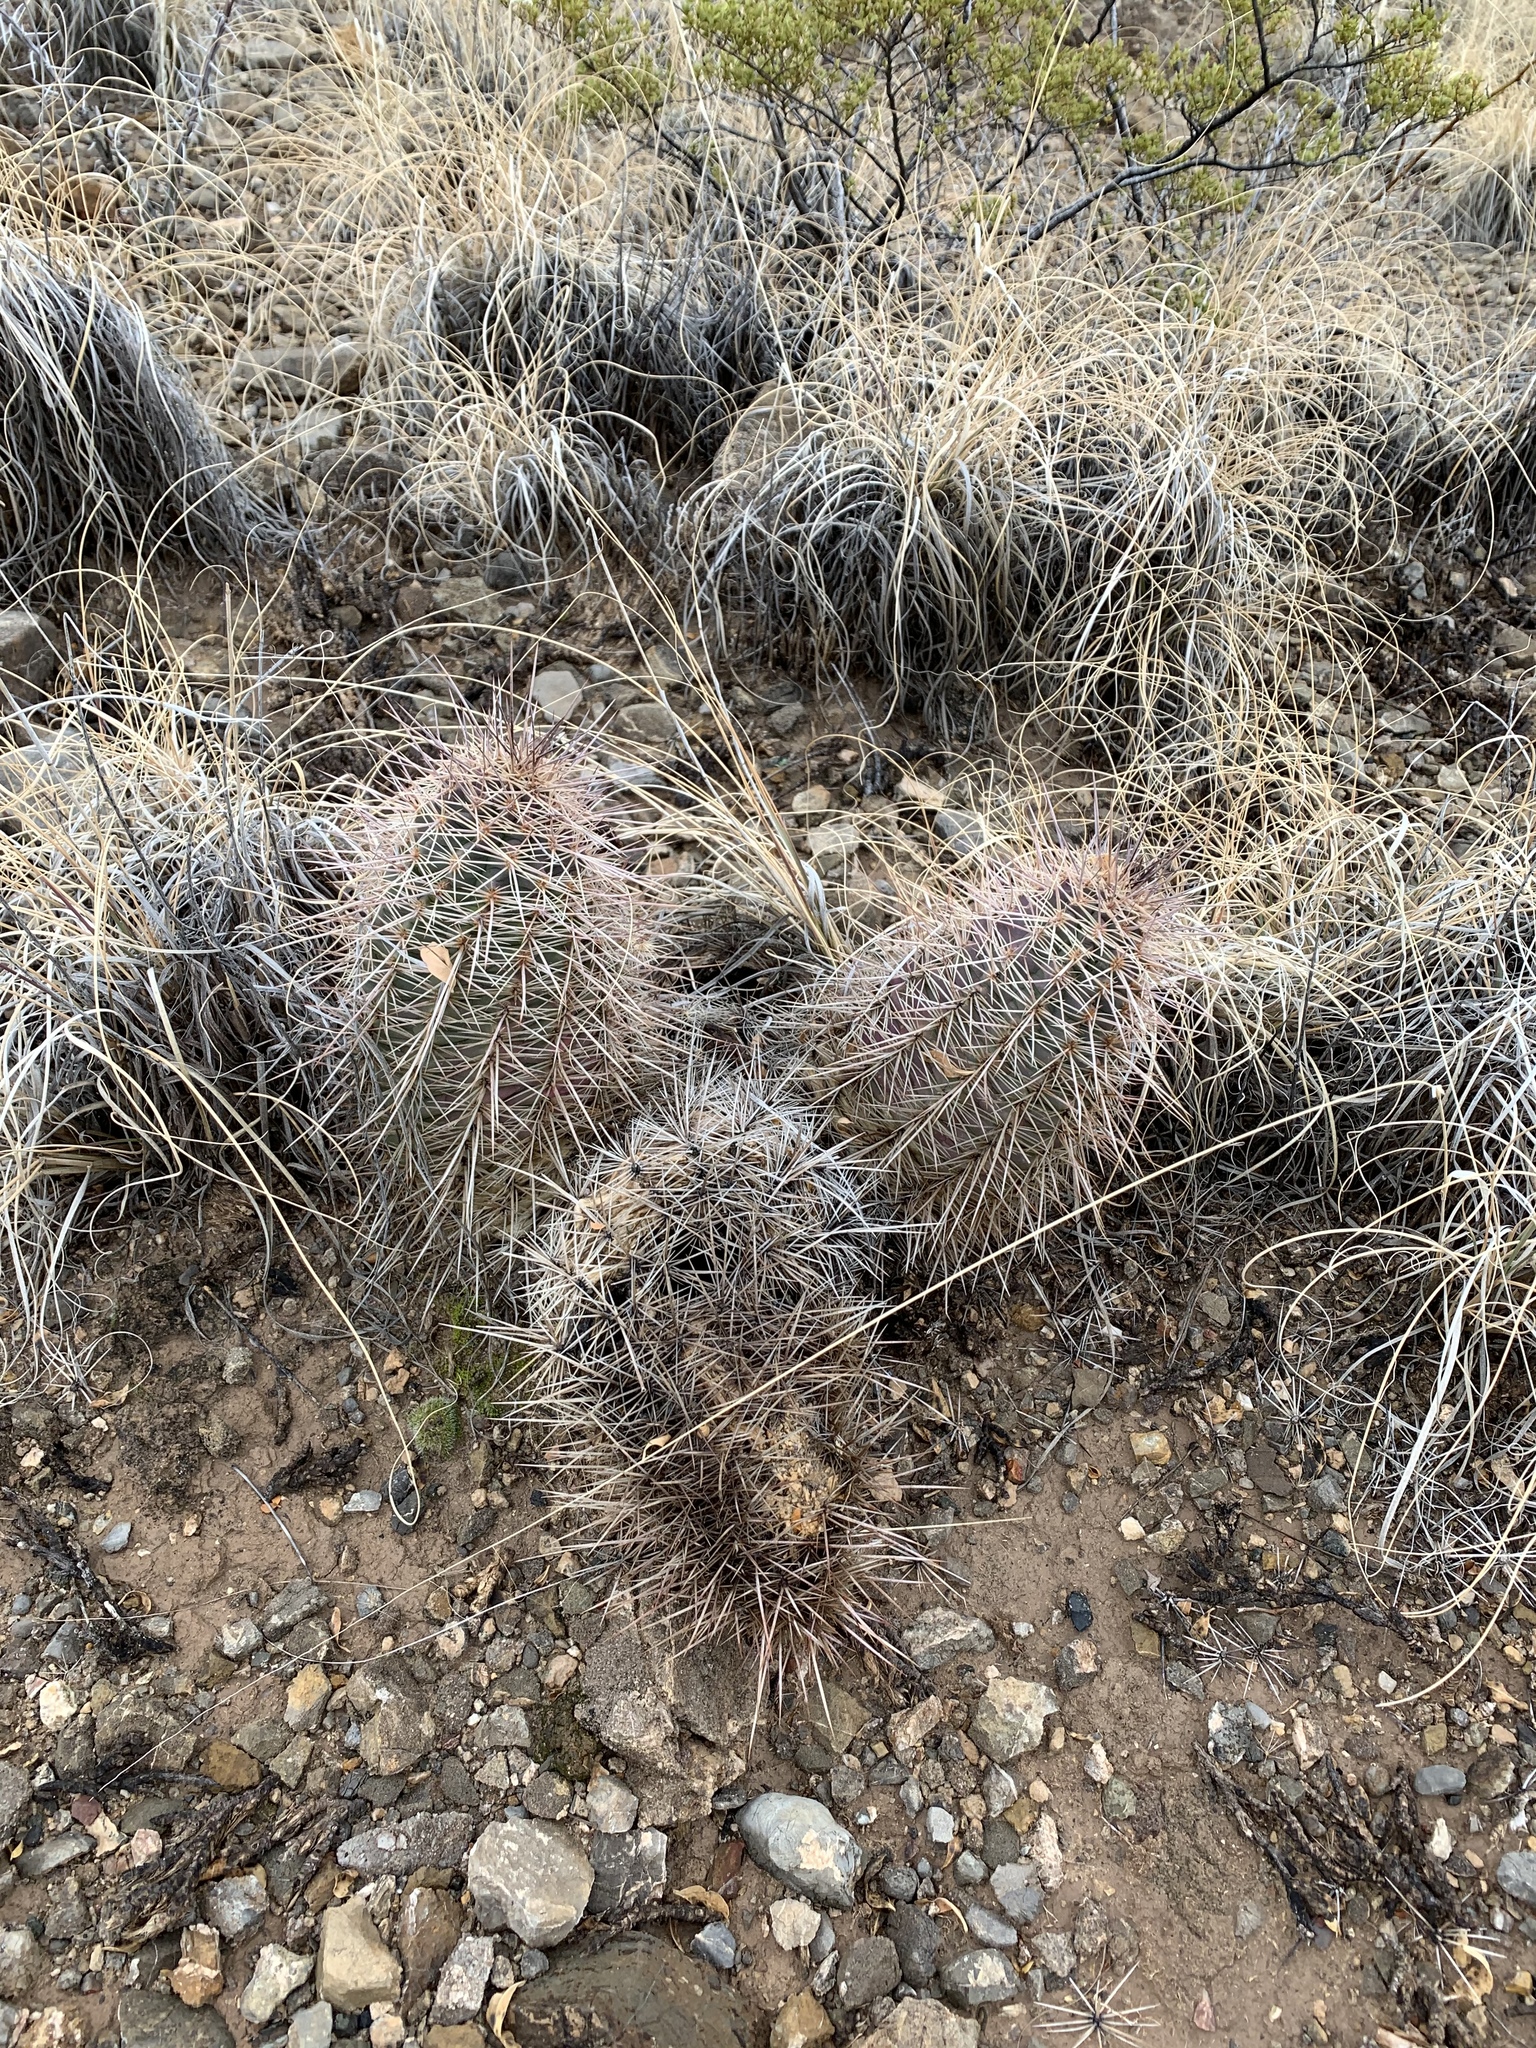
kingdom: Plantae
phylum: Tracheophyta
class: Magnoliopsida
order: Caryophyllales
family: Cactaceae
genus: Echinocereus
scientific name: Echinocereus coccineus
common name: Scarlet hedgehog cactus
